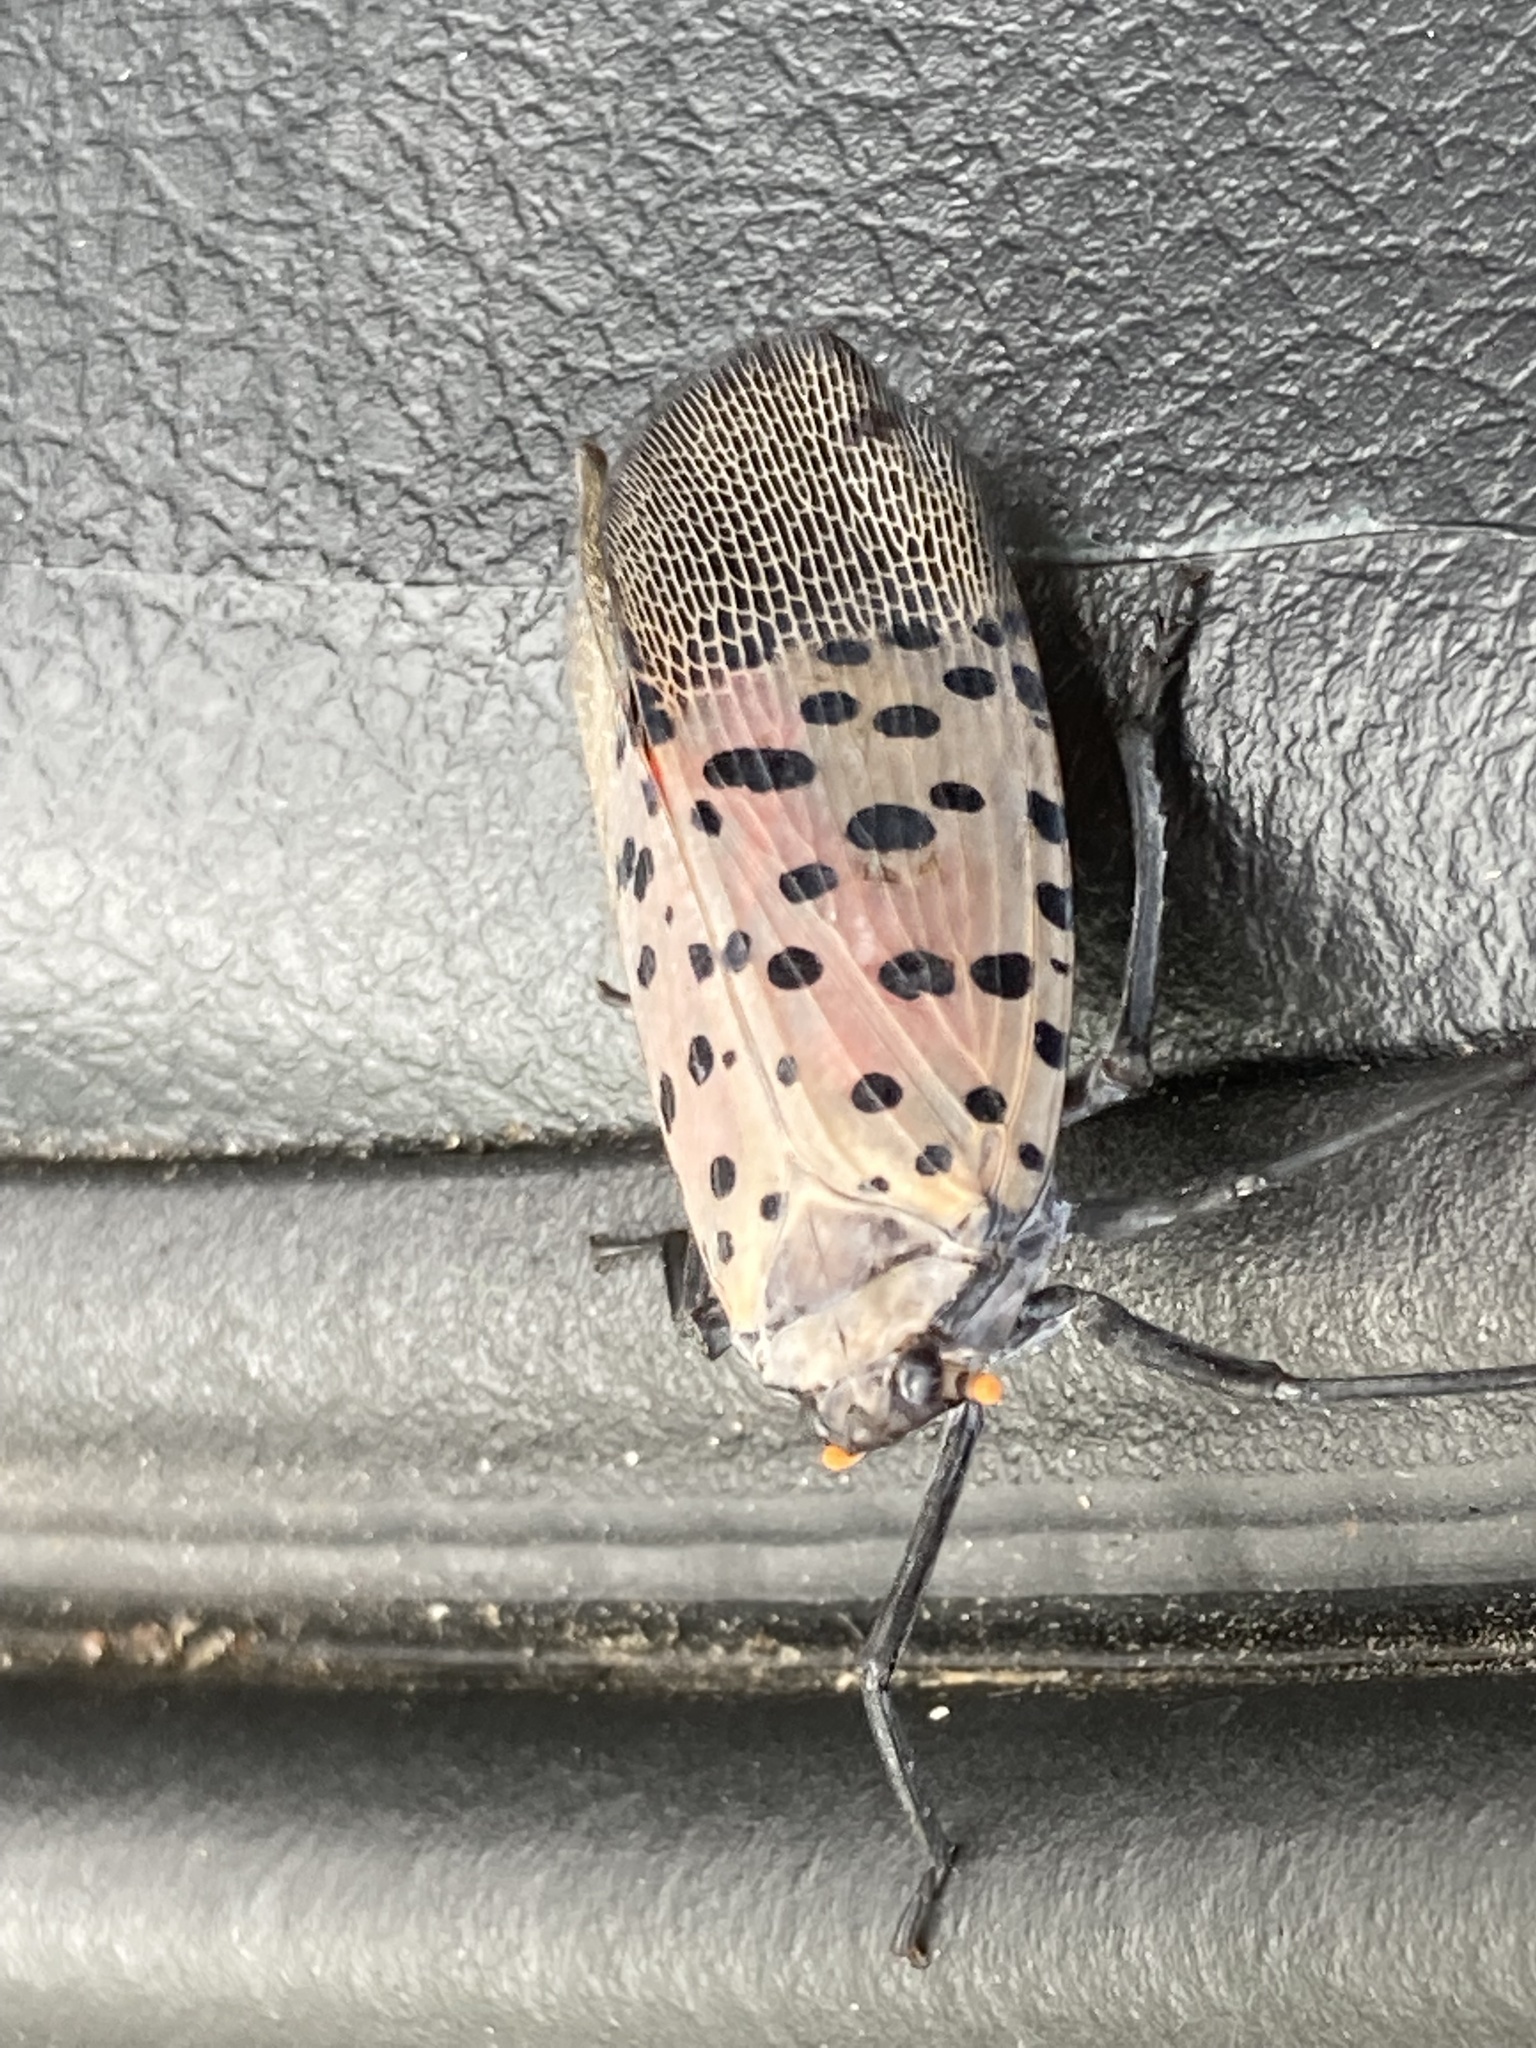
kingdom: Animalia
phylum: Arthropoda
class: Insecta
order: Hemiptera
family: Fulgoridae
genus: Lycorma
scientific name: Lycorma delicatula
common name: Spotted lanternfly
